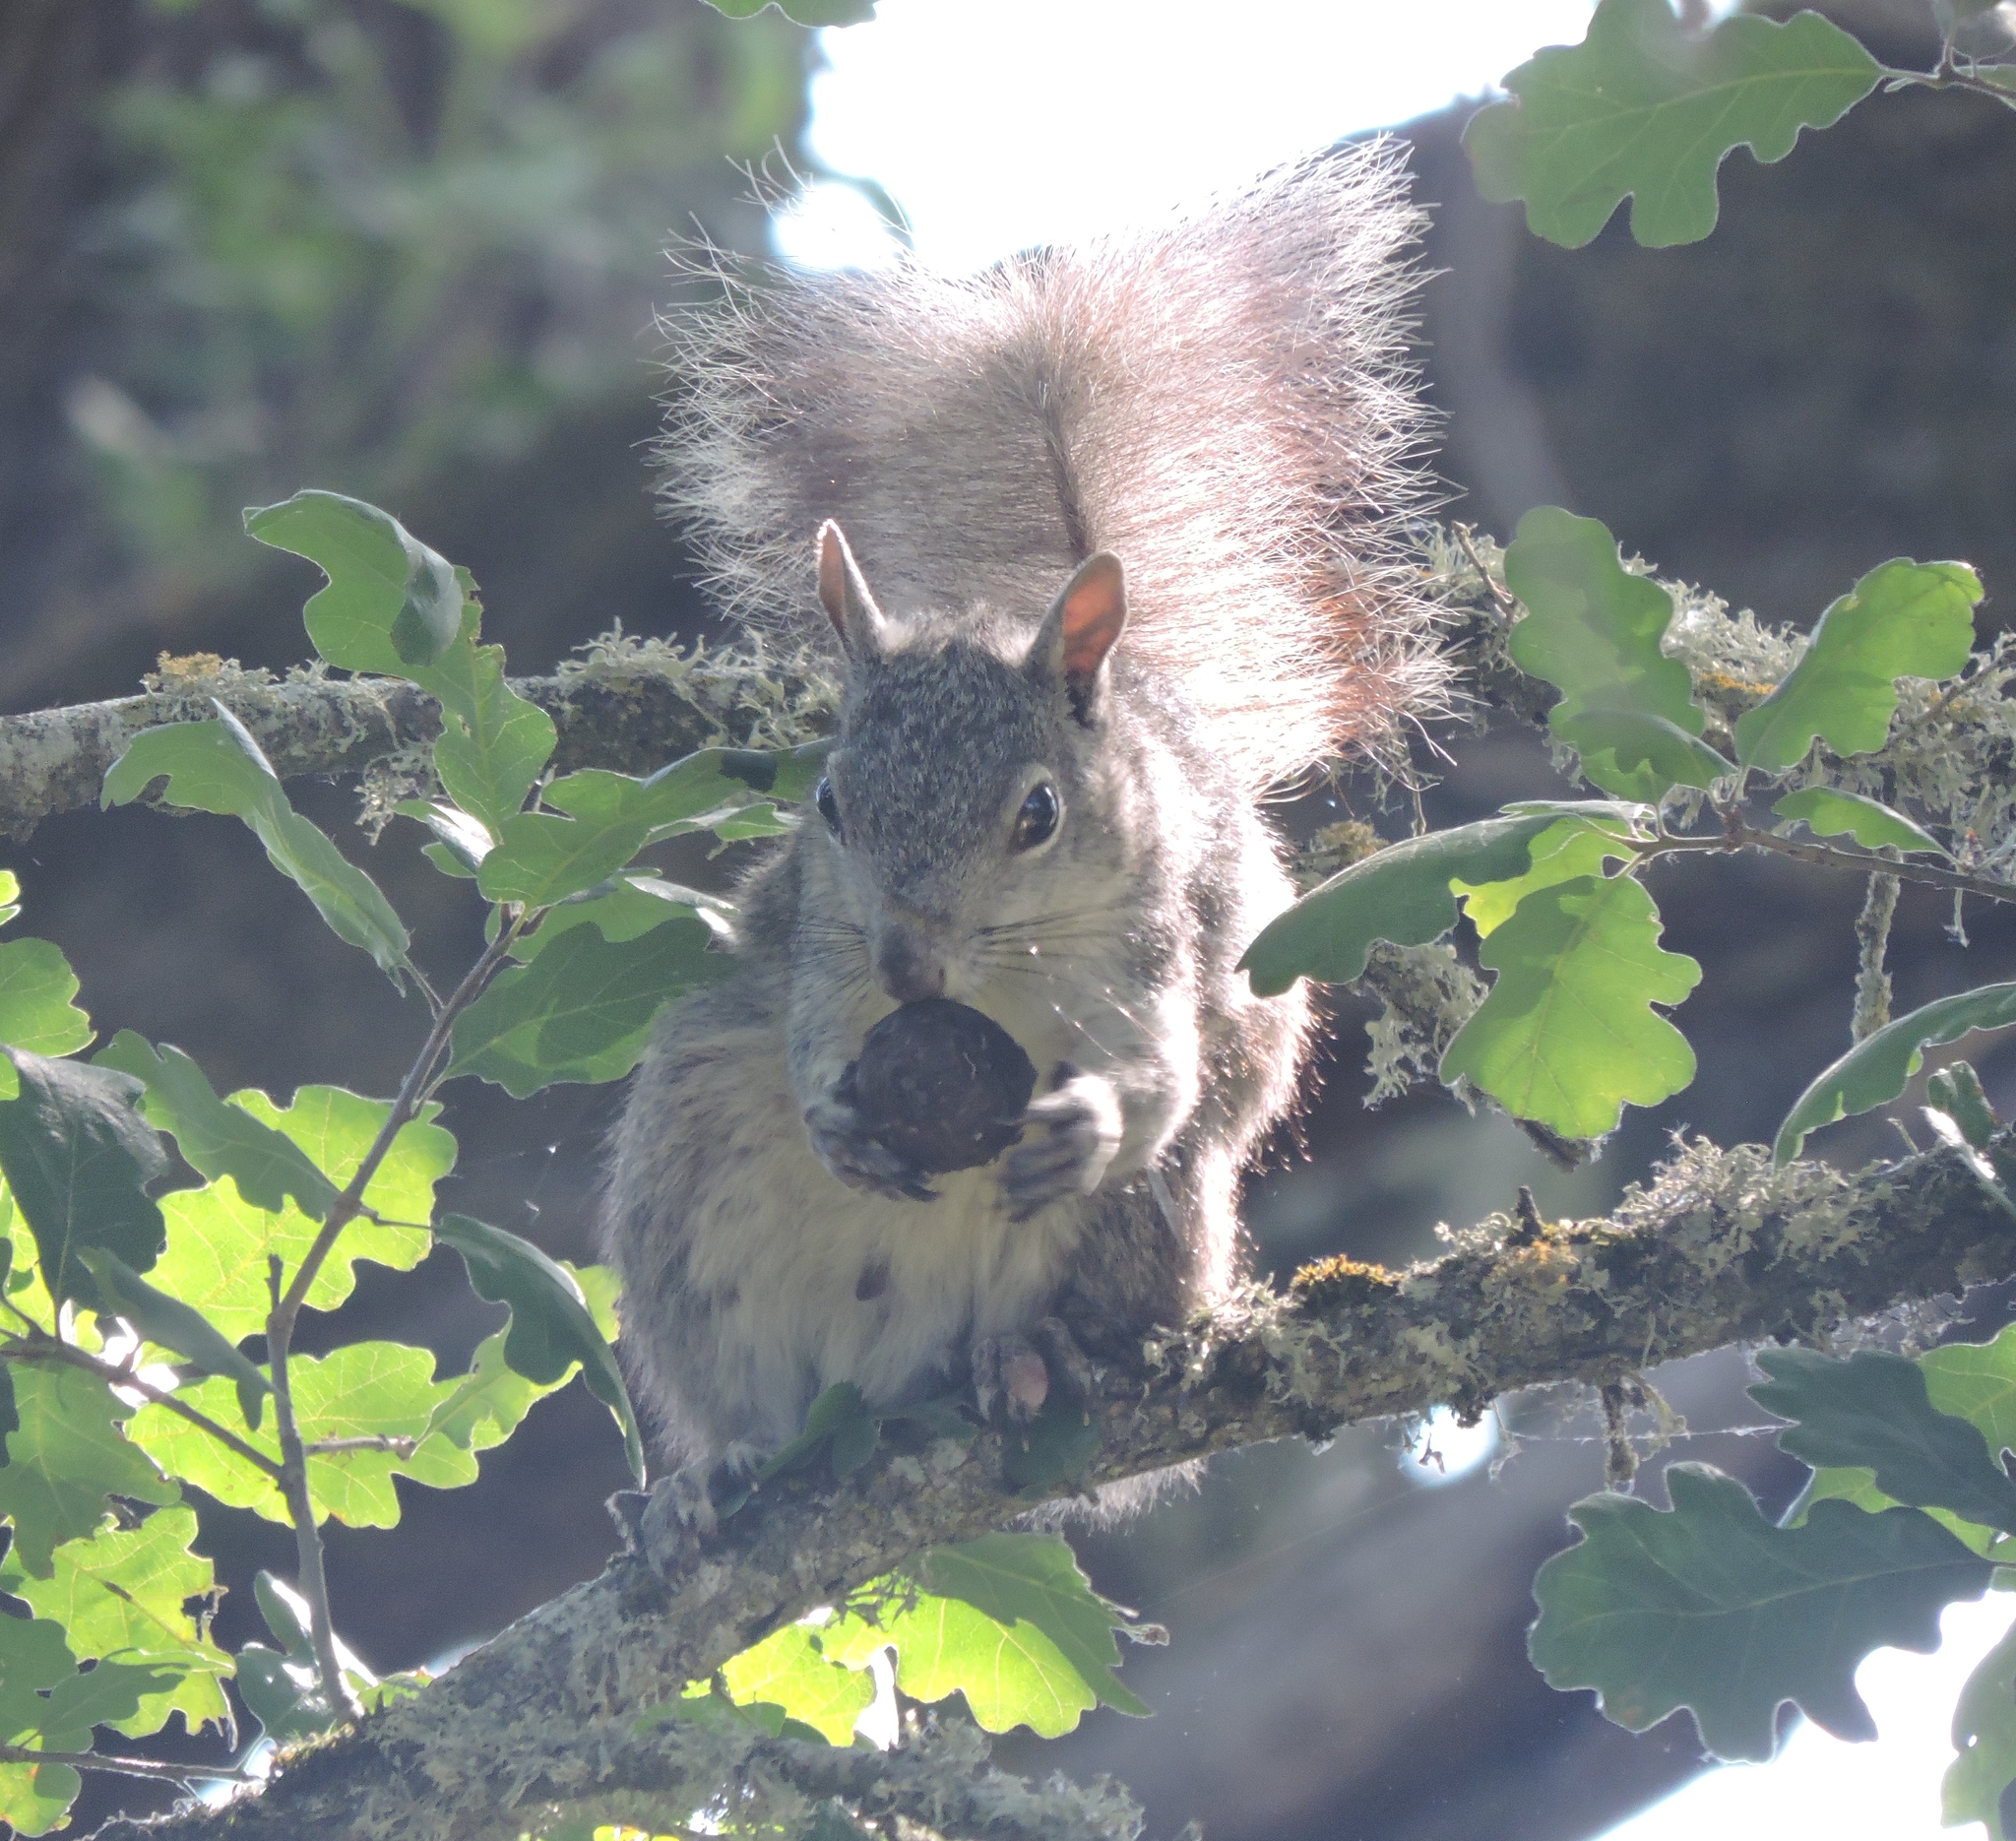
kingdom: Animalia
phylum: Chordata
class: Mammalia
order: Rodentia
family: Sciuridae
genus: Sciurus
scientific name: Sciurus griseus
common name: Western gray squirrel
